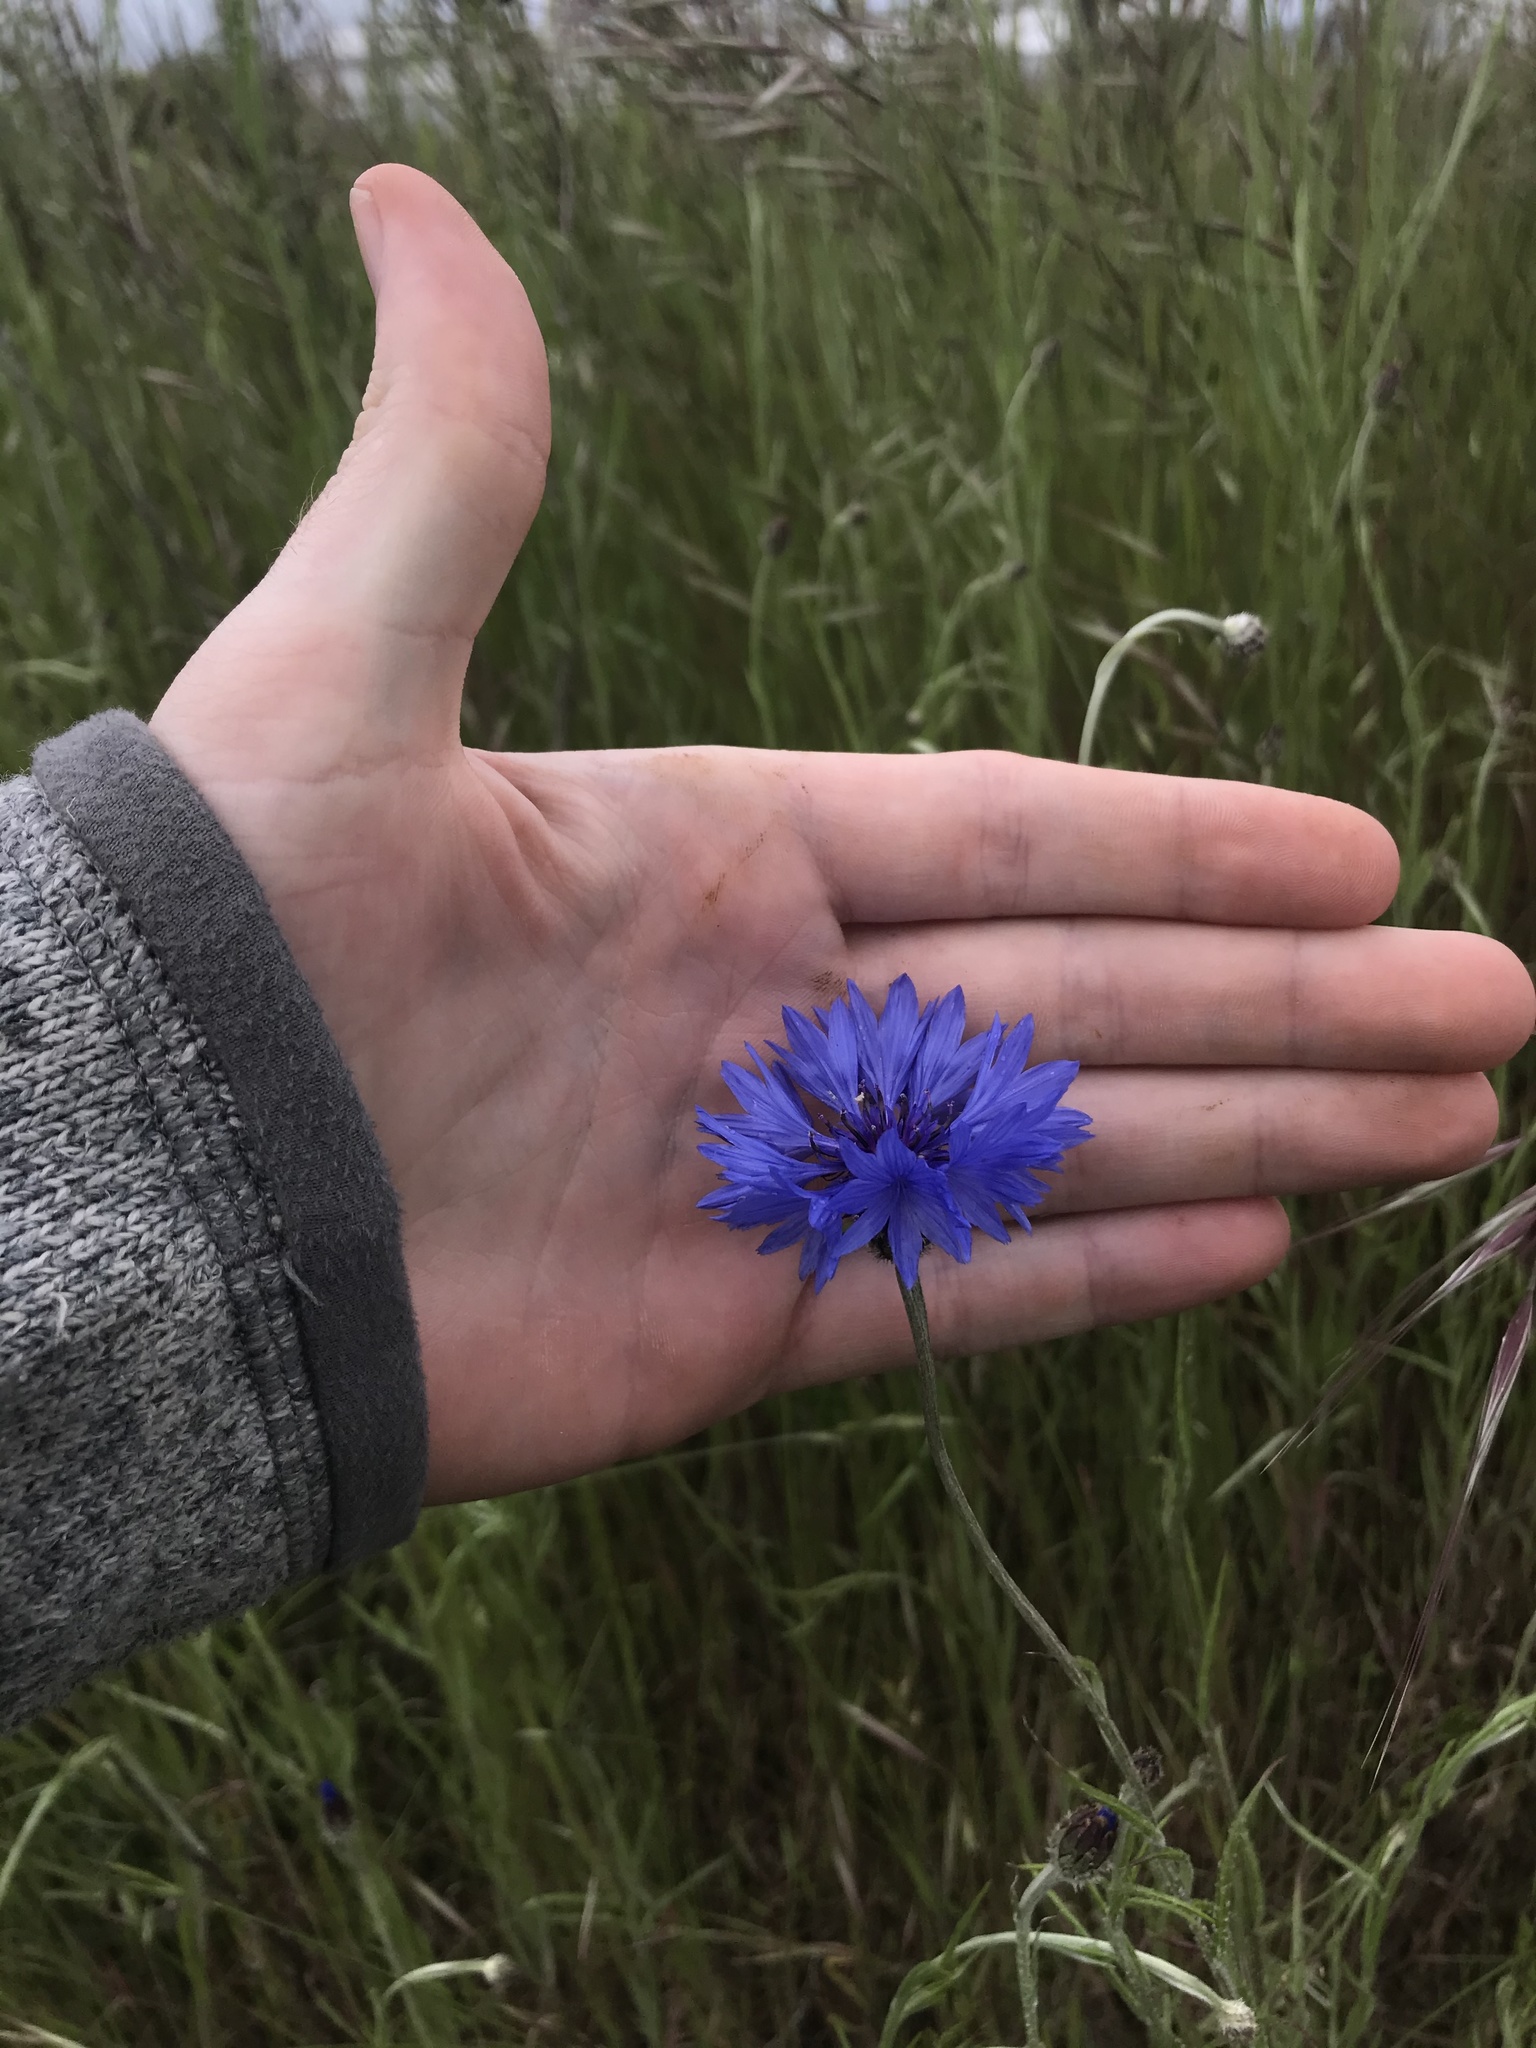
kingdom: Plantae
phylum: Tracheophyta
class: Magnoliopsida
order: Asterales
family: Asteraceae
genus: Centaurea
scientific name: Centaurea cyanus
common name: Cornflower
